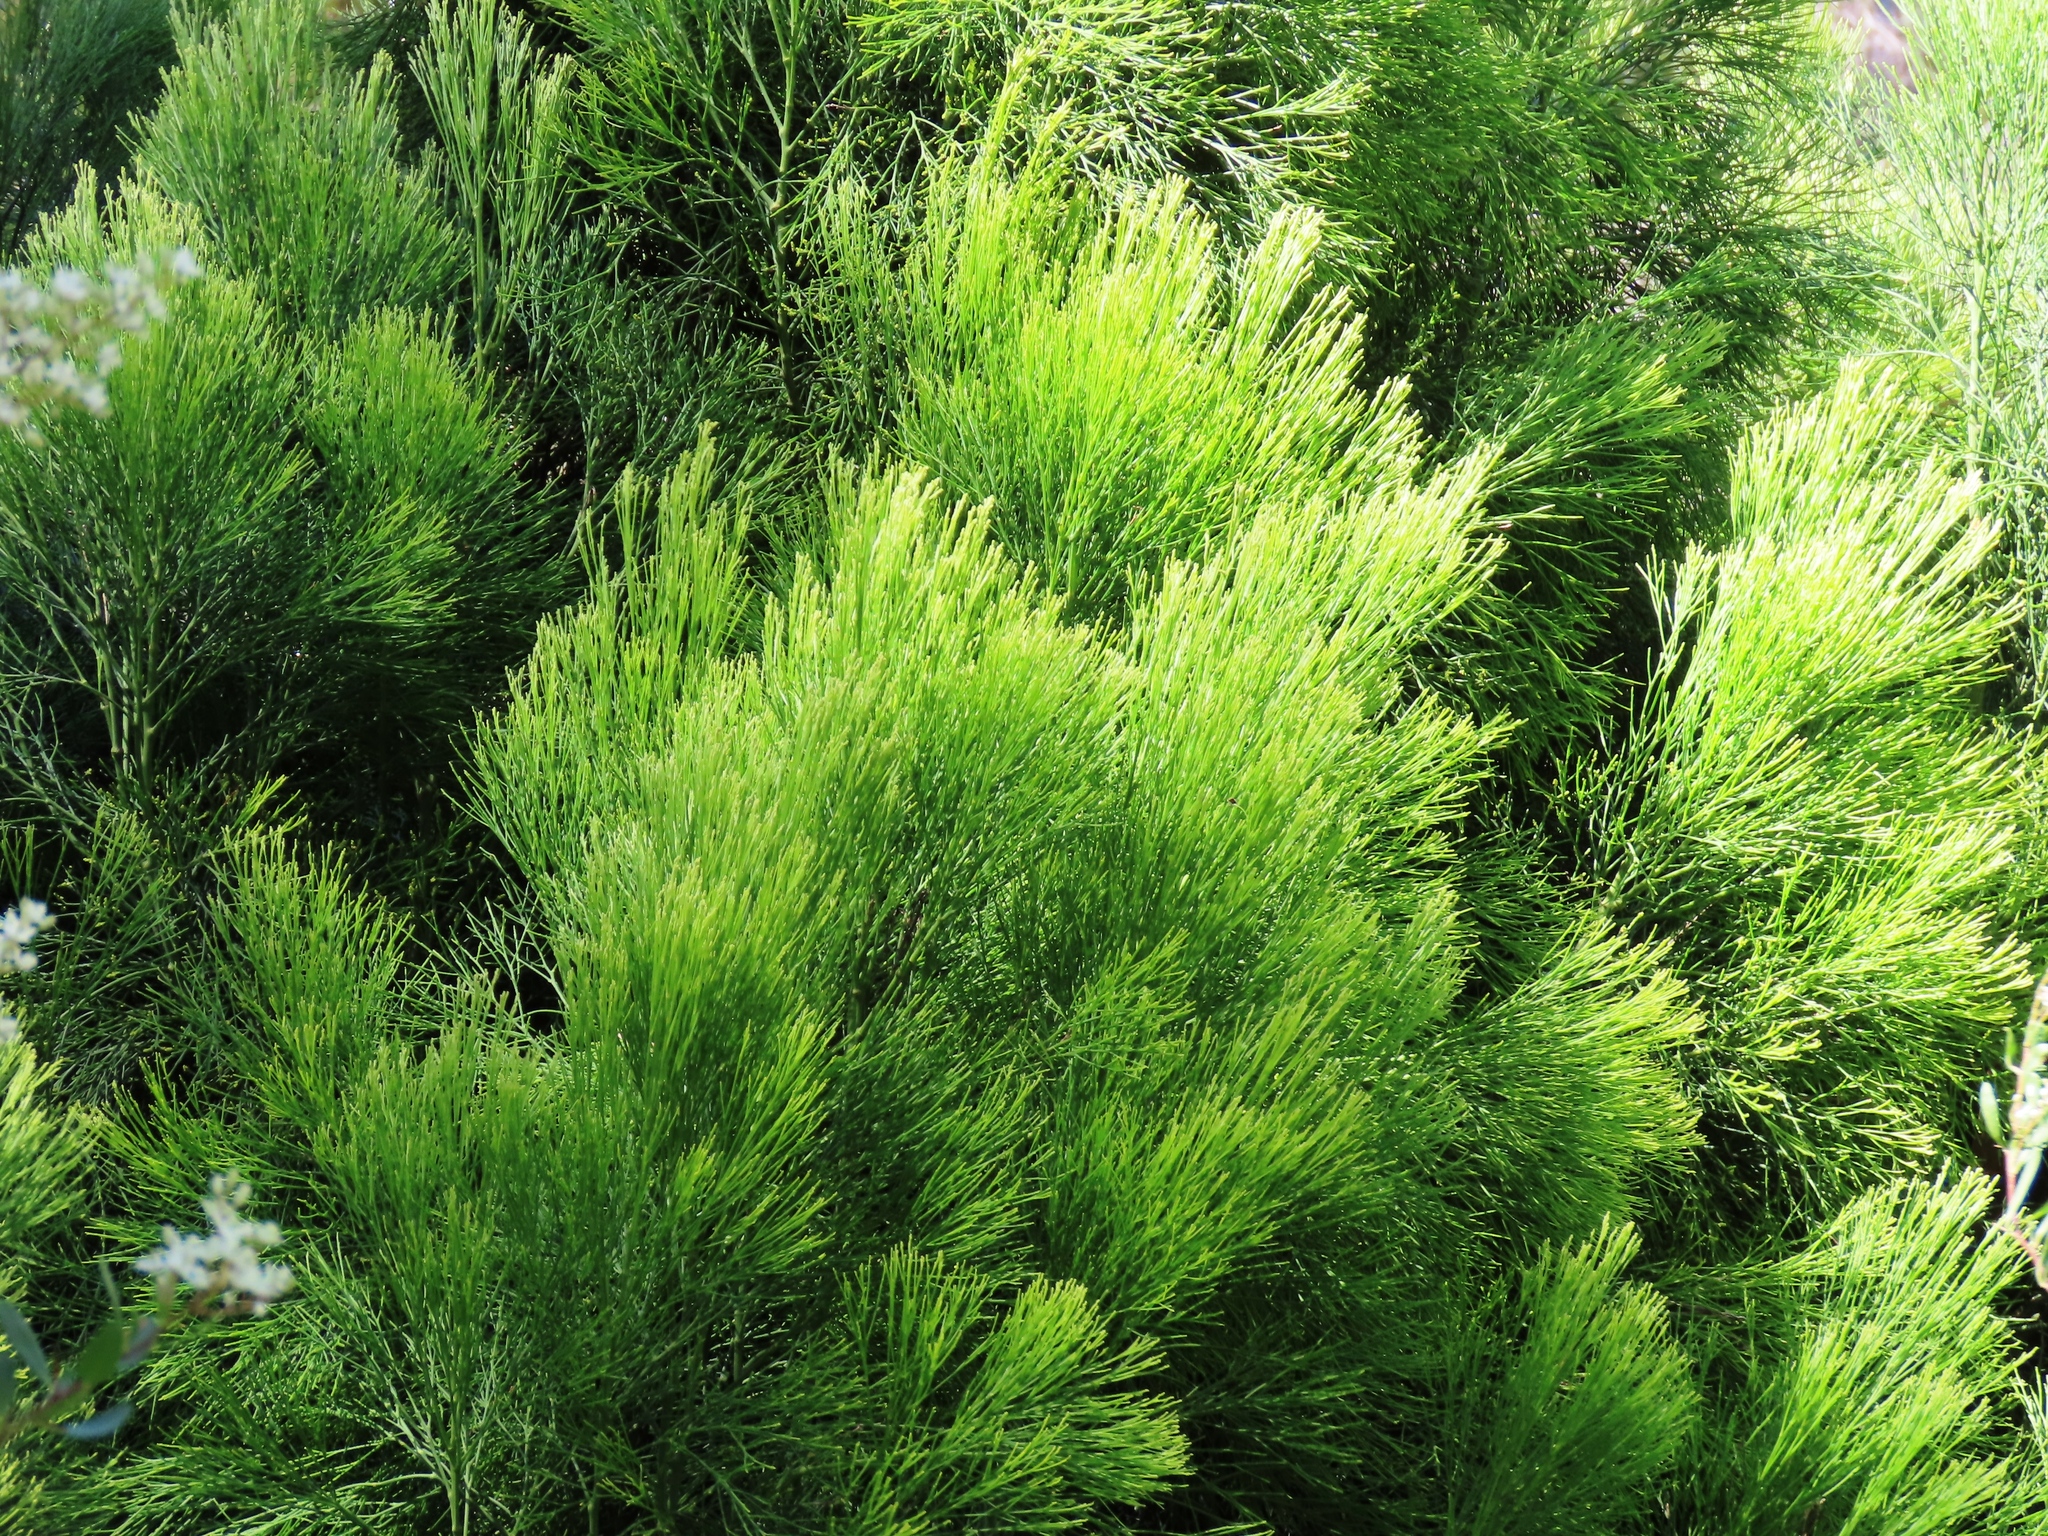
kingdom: Plantae
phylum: Tracheophyta
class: Magnoliopsida
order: Santalales
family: Santalaceae
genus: Exocarpos
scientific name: Exocarpos cupressiformis
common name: Cherry ballart
